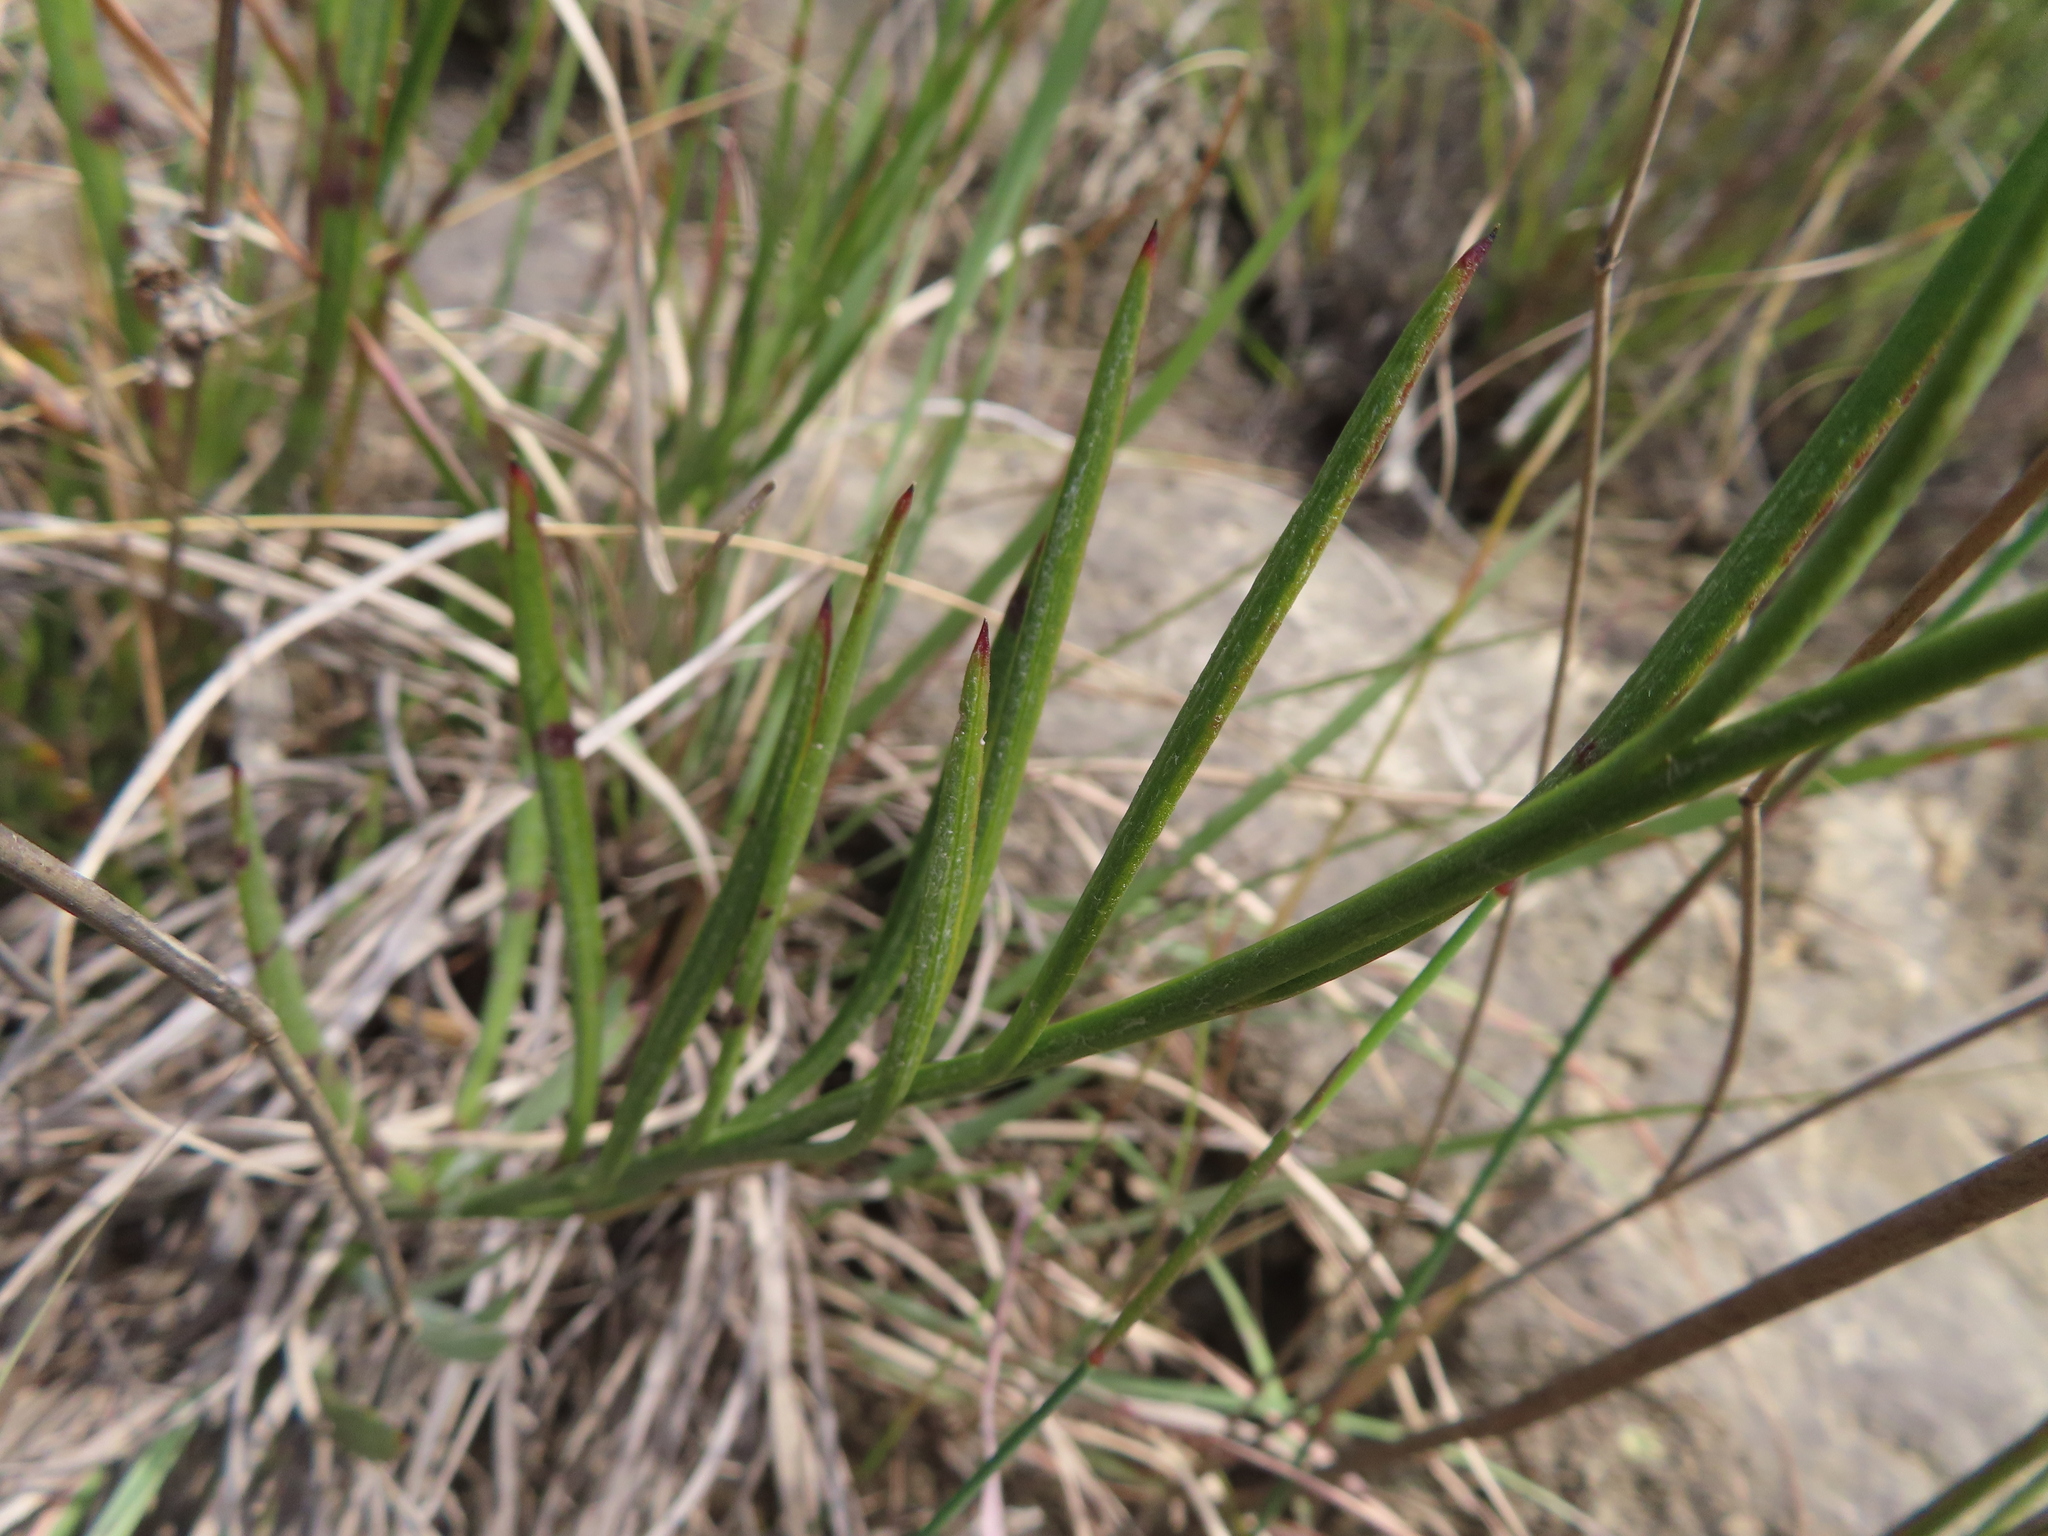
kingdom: Plantae
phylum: Tracheophyta
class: Magnoliopsida
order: Asterales
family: Asteraceae
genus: Osteospermum
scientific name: Osteospermum asperulum
